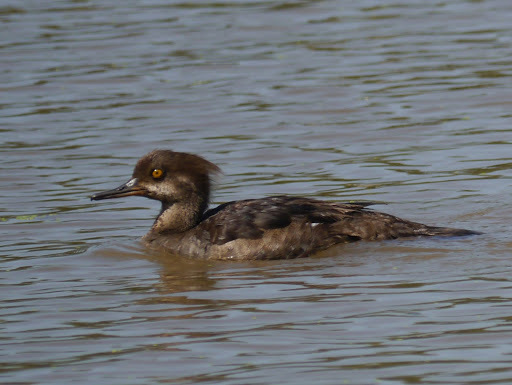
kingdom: Animalia
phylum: Chordata
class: Aves
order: Anseriformes
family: Anatidae
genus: Lophodytes
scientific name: Lophodytes cucullatus
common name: Hooded merganser
